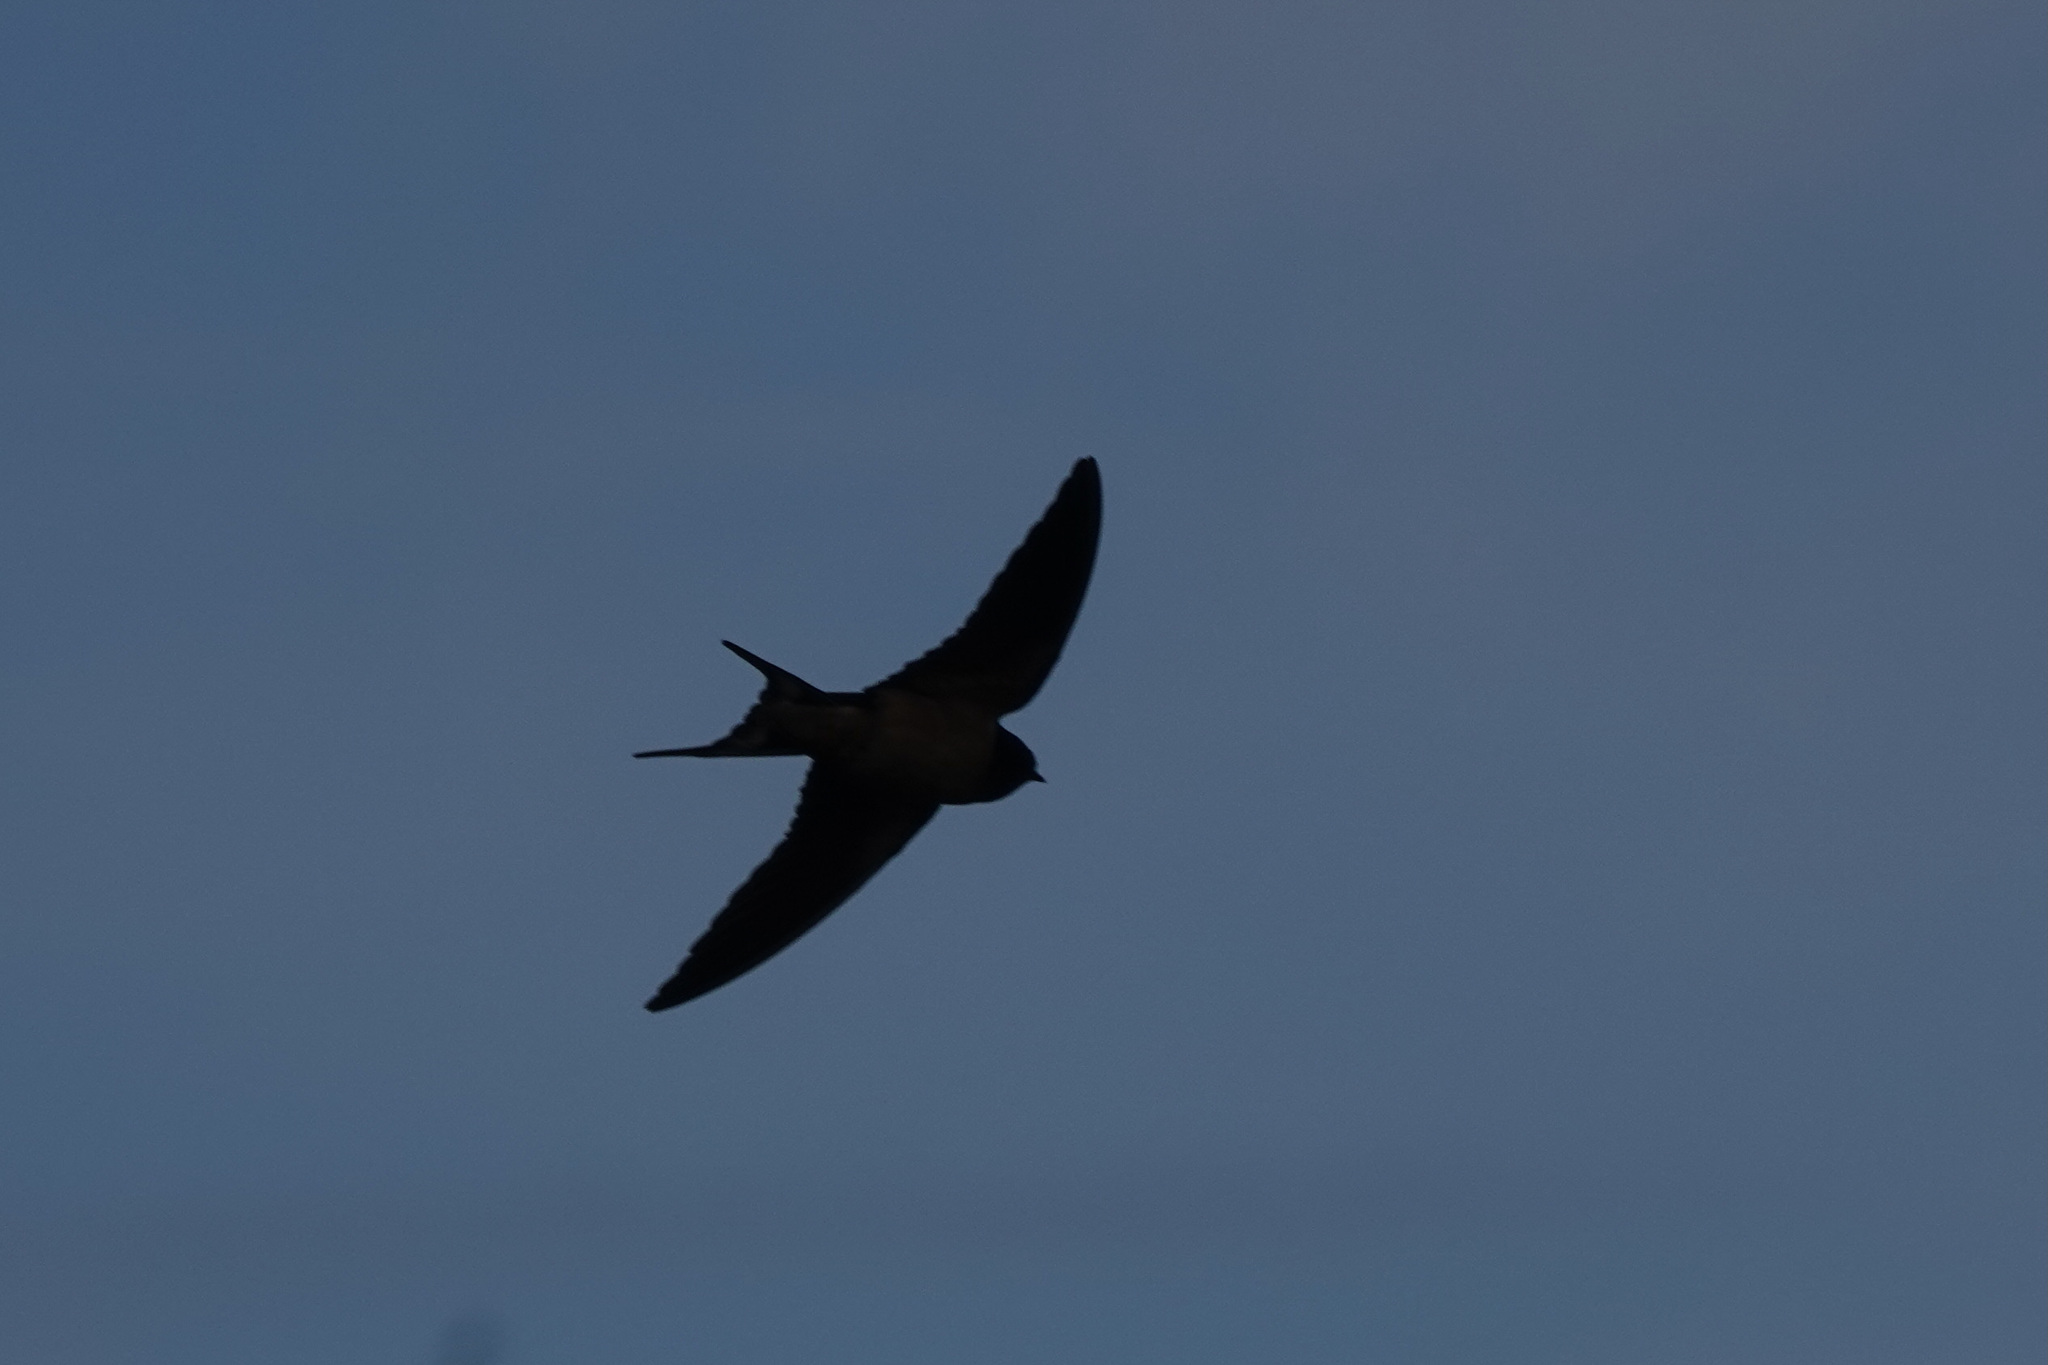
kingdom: Animalia
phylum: Chordata
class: Aves
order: Passeriformes
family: Hirundinidae
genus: Hirundo
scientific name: Hirundo rustica
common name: Barn swallow
